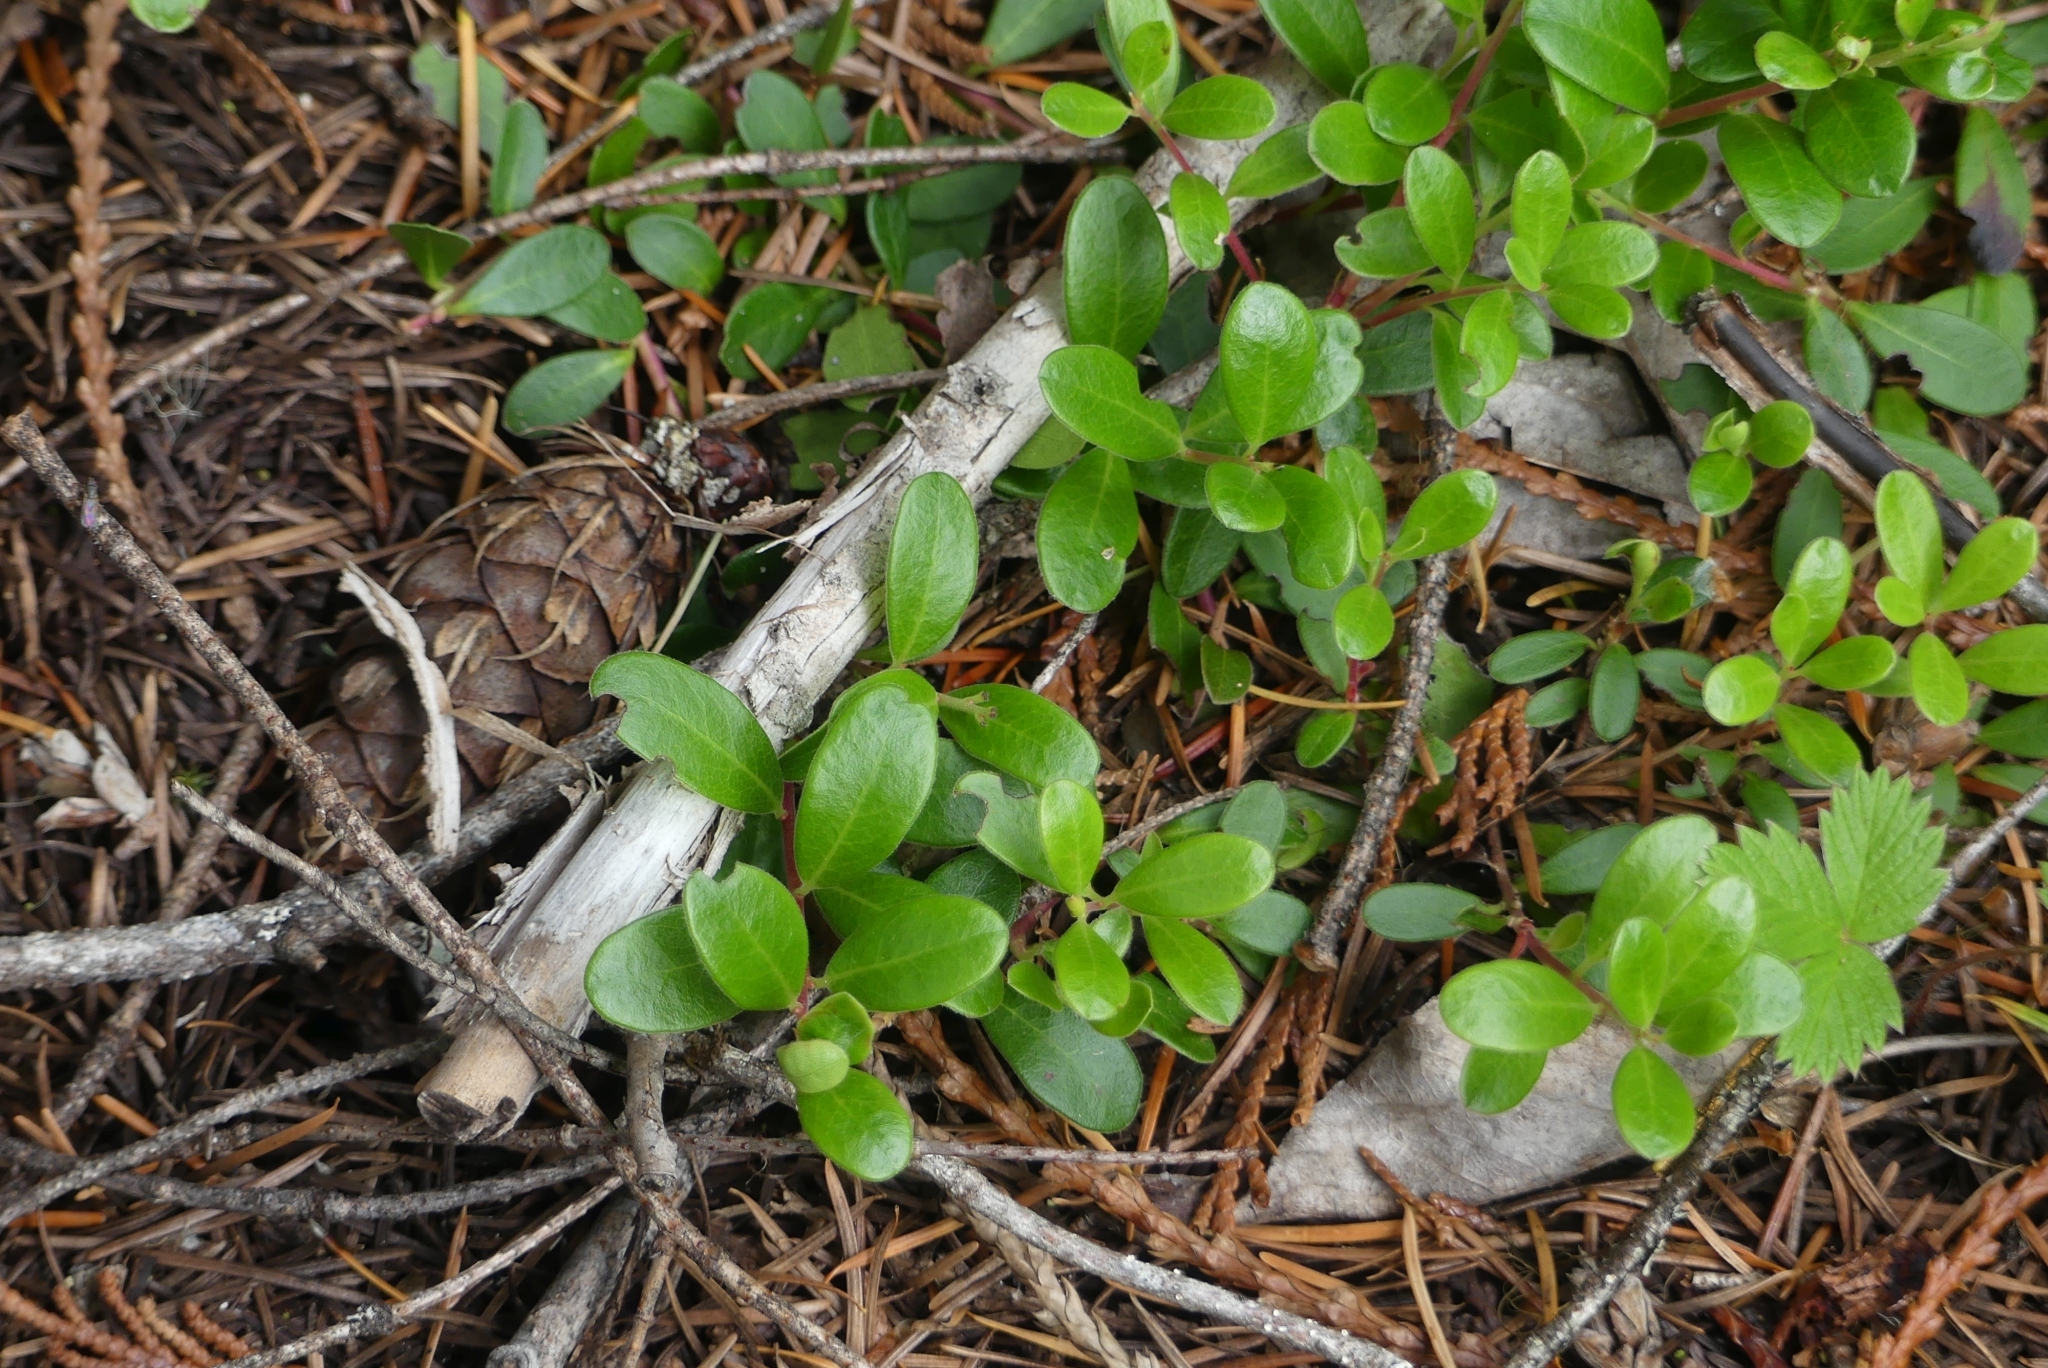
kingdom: Plantae
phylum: Tracheophyta
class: Magnoliopsida
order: Ericales
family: Ericaceae
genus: Arctostaphylos
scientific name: Arctostaphylos uva-ursi
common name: Bearberry
